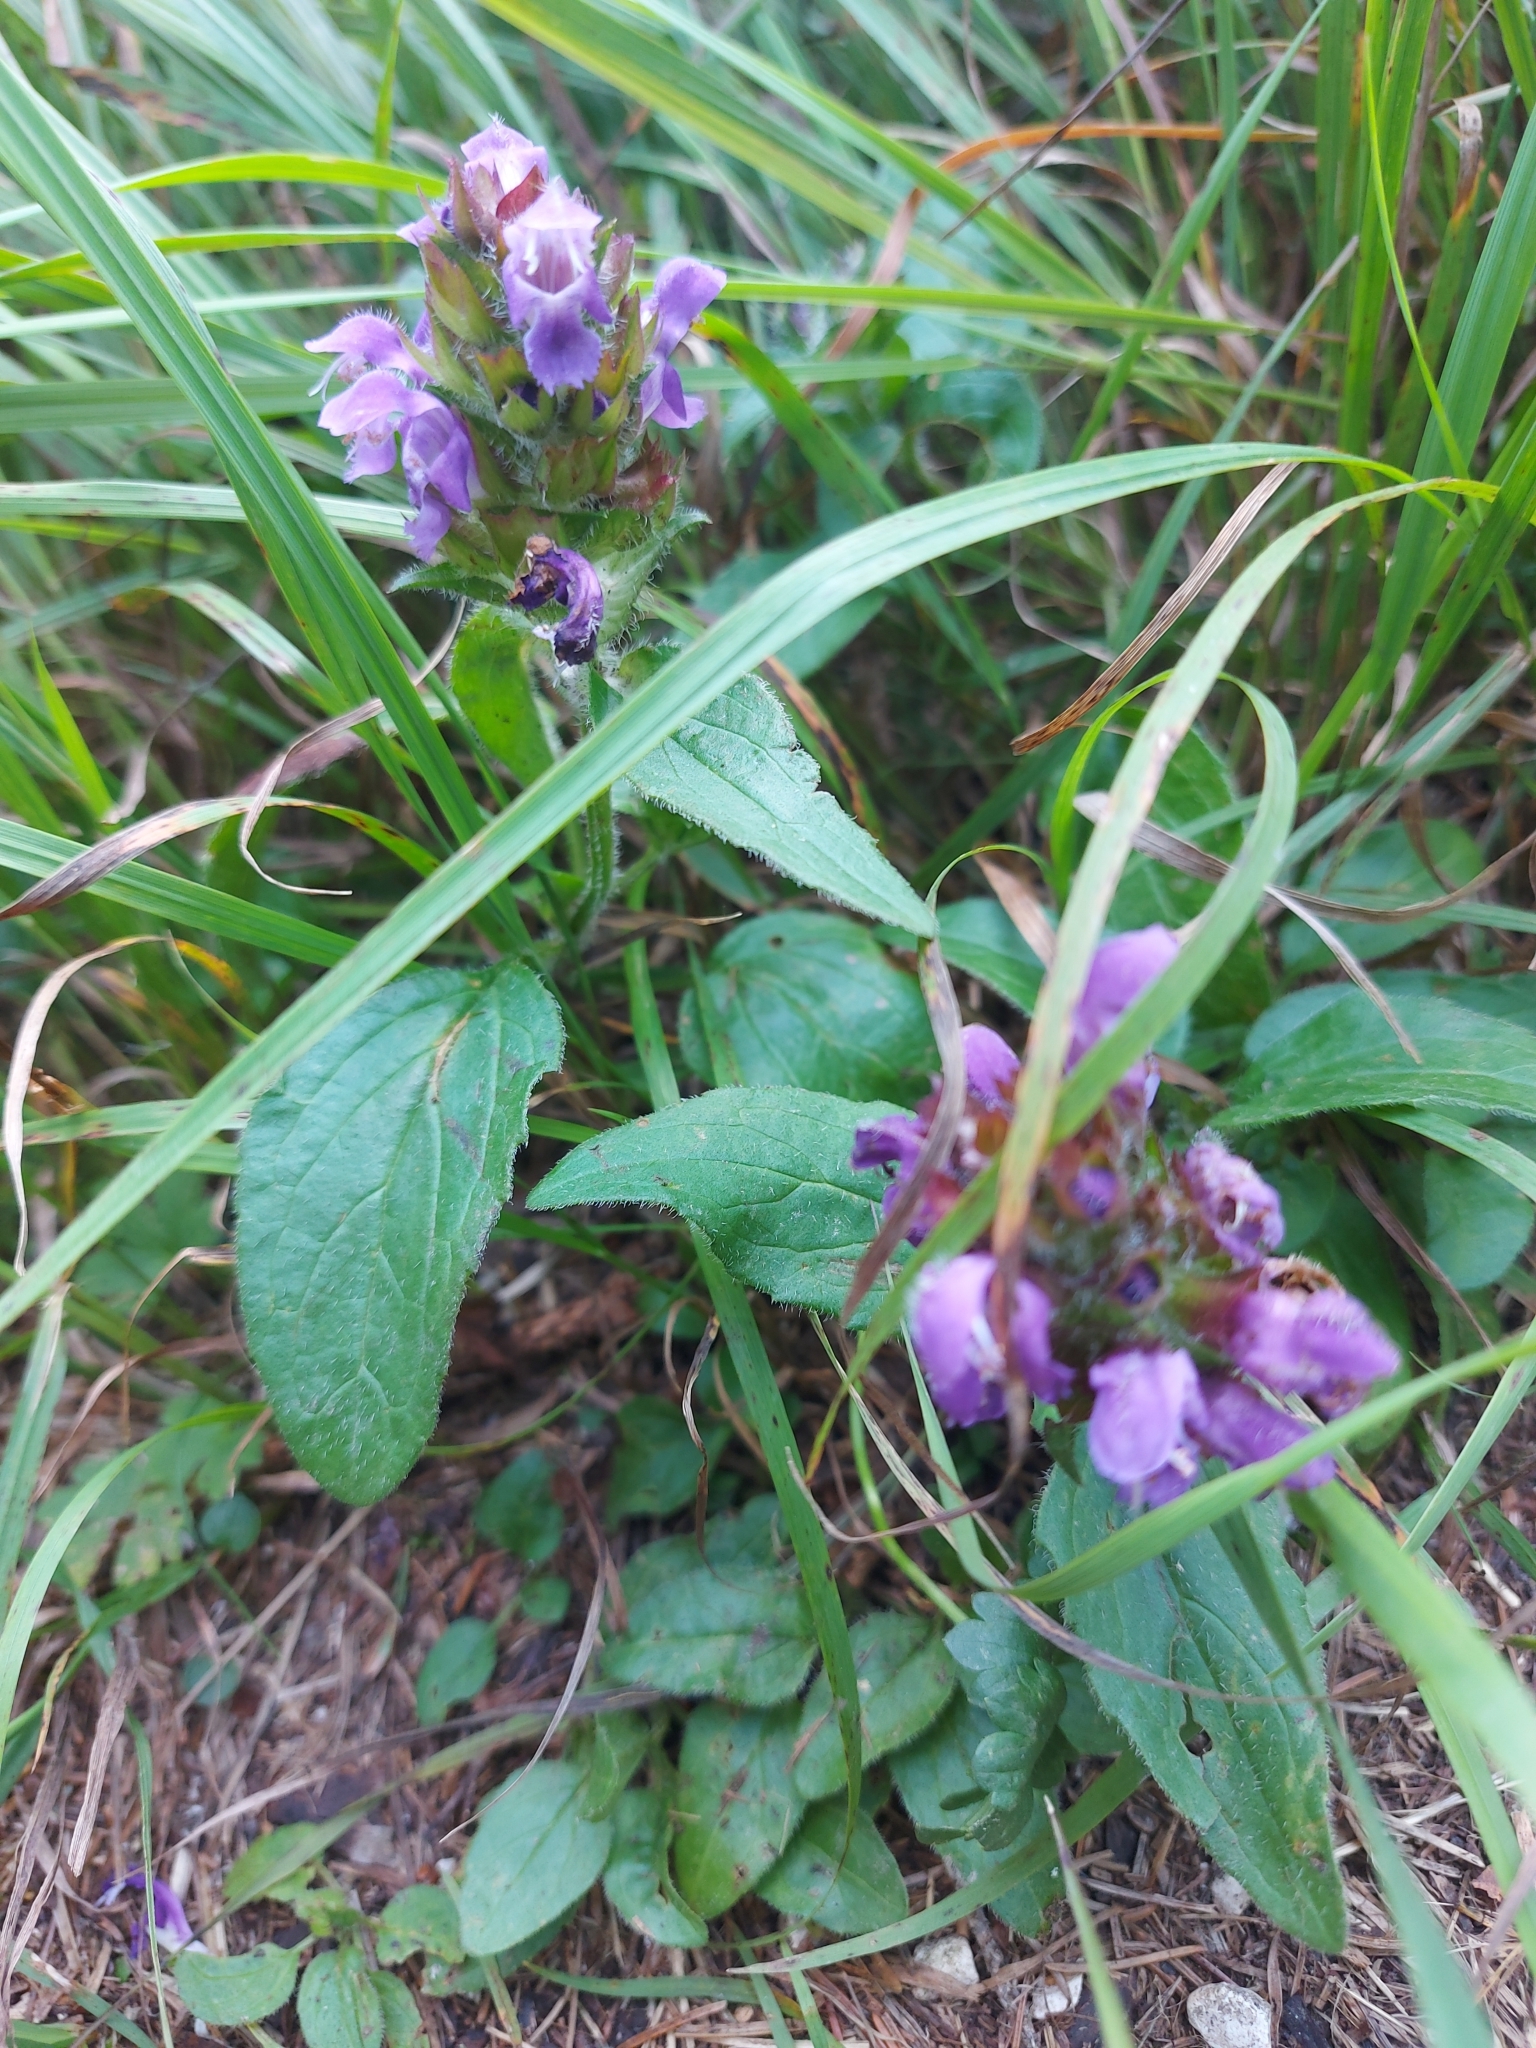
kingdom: Plantae
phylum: Tracheophyta
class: Magnoliopsida
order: Lamiales
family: Lamiaceae
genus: Prunella
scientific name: Prunella vulgaris
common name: Heal-all
